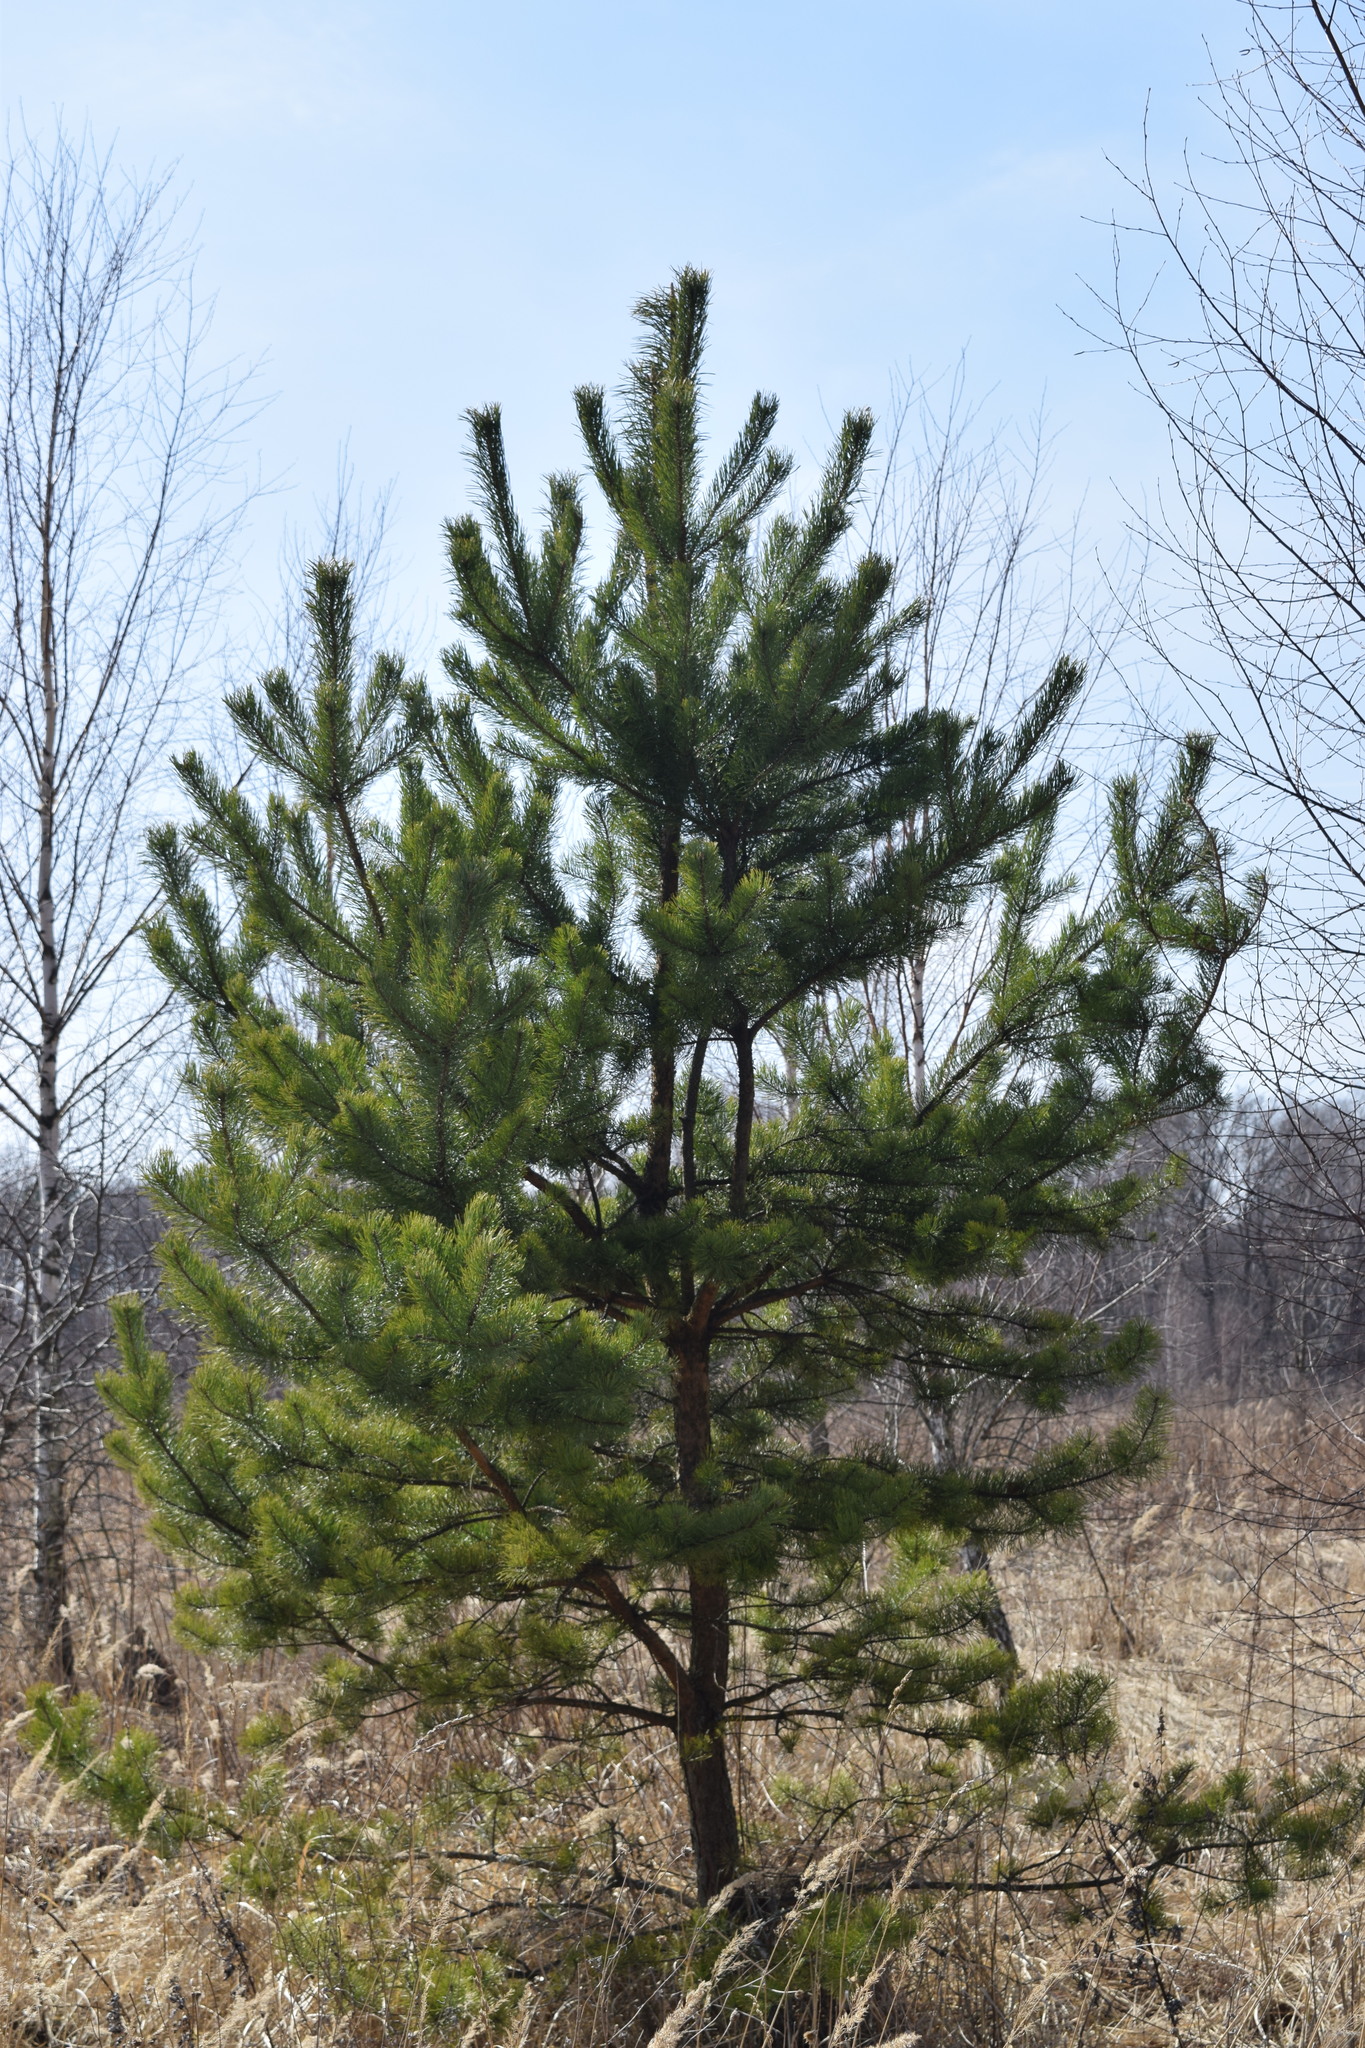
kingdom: Plantae
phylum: Tracheophyta
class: Pinopsida
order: Pinales
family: Pinaceae
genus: Pinus
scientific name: Pinus sylvestris
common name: Scots pine
